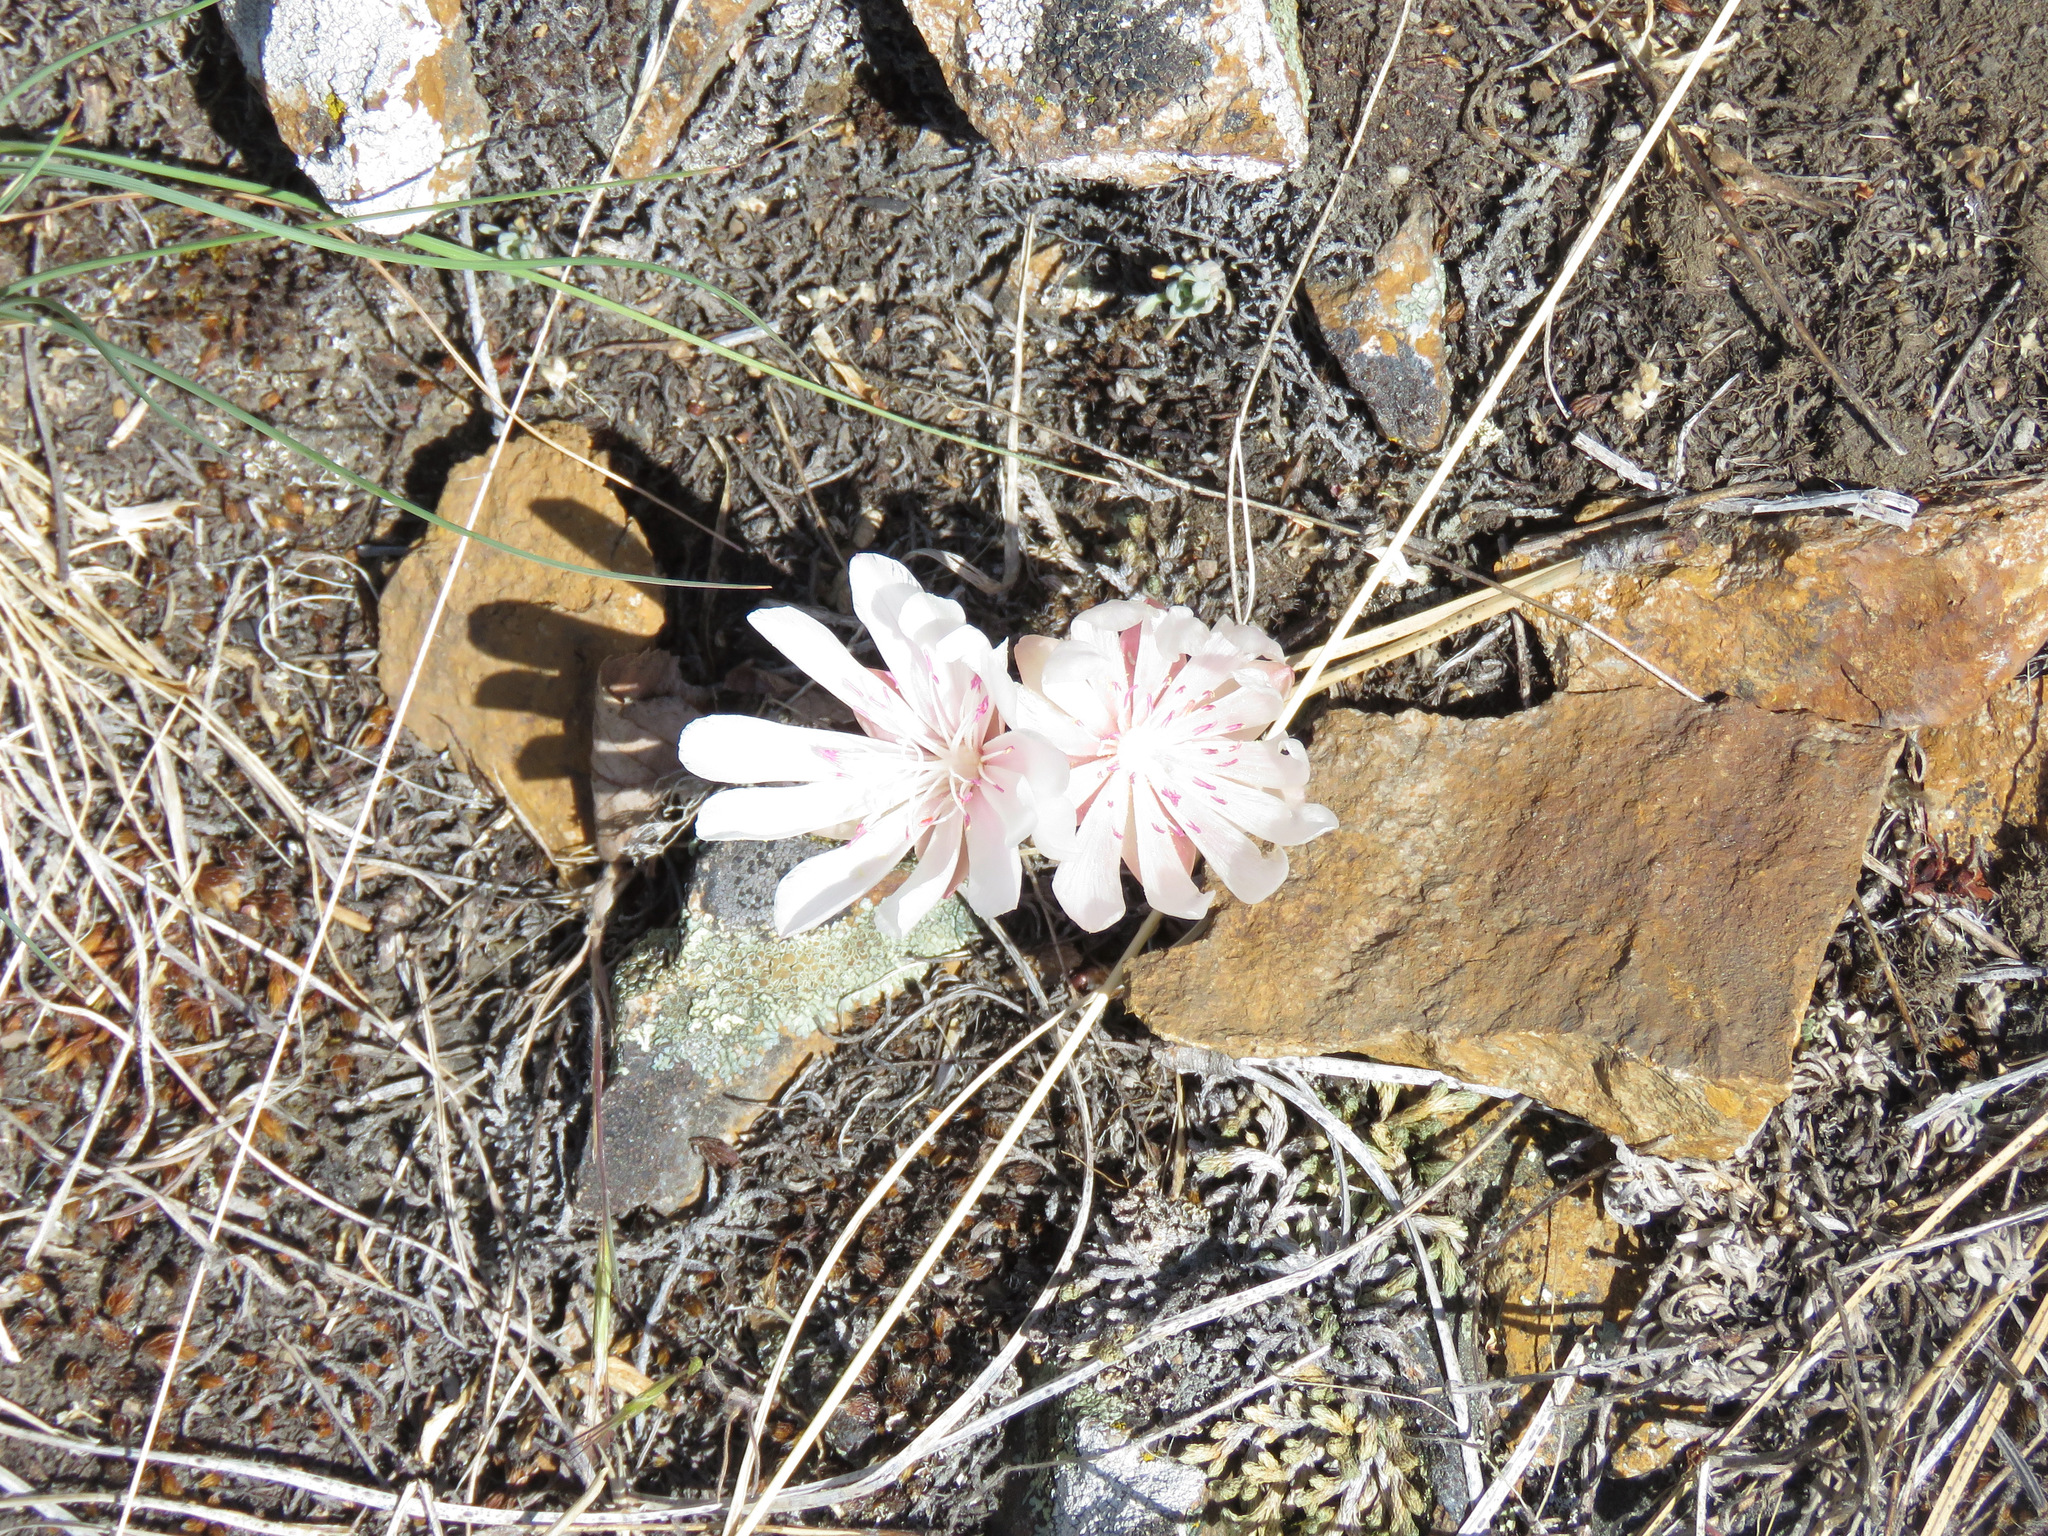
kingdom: Plantae
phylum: Tracheophyta
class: Magnoliopsida
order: Caryophyllales
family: Montiaceae
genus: Lewisia
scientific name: Lewisia rediviva
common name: Bitter-root
